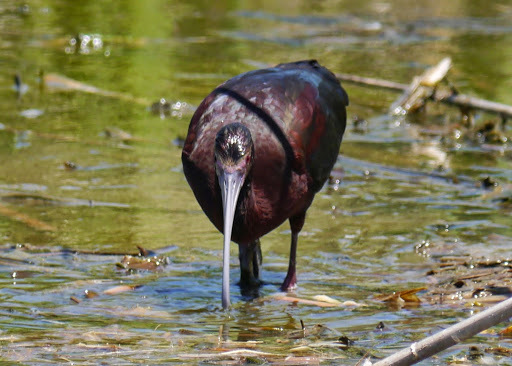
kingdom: Animalia
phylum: Chordata
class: Aves
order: Pelecaniformes
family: Threskiornithidae
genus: Plegadis
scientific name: Plegadis chihi
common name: White-faced ibis
